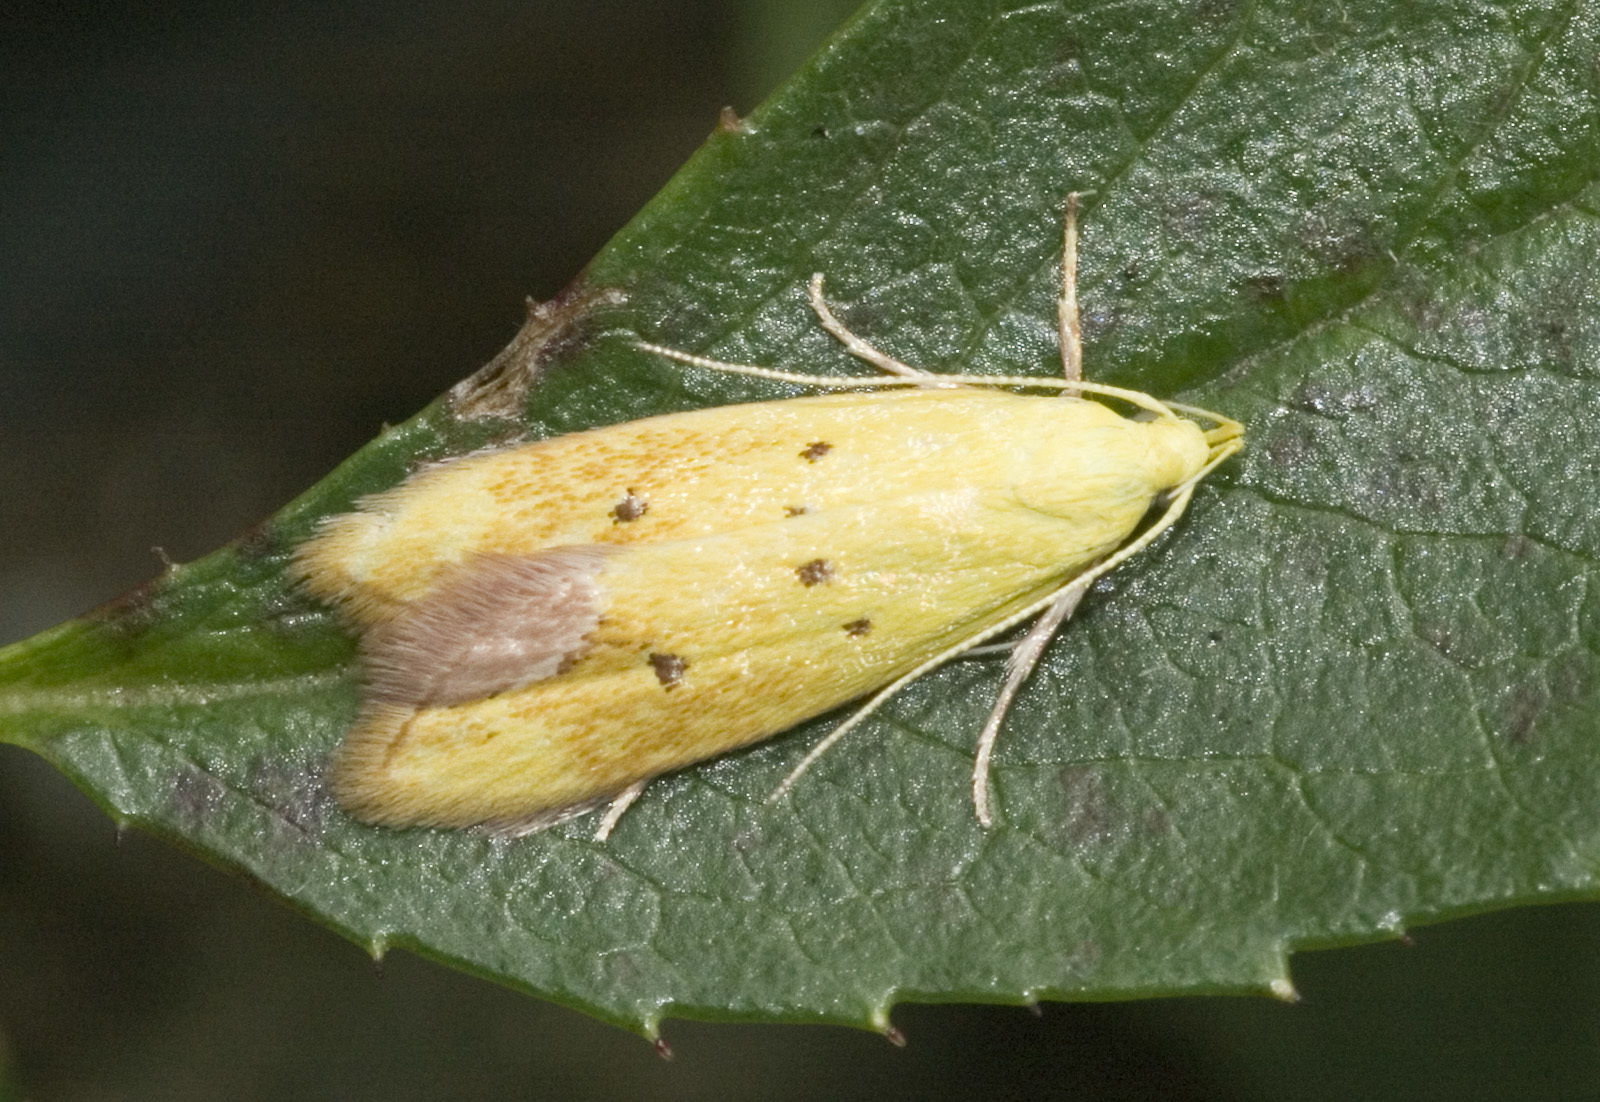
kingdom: Animalia
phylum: Arthropoda
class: Insecta
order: Lepidoptera
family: Oecophoridae
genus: Gymnobathra
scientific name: Gymnobathra flavidella
